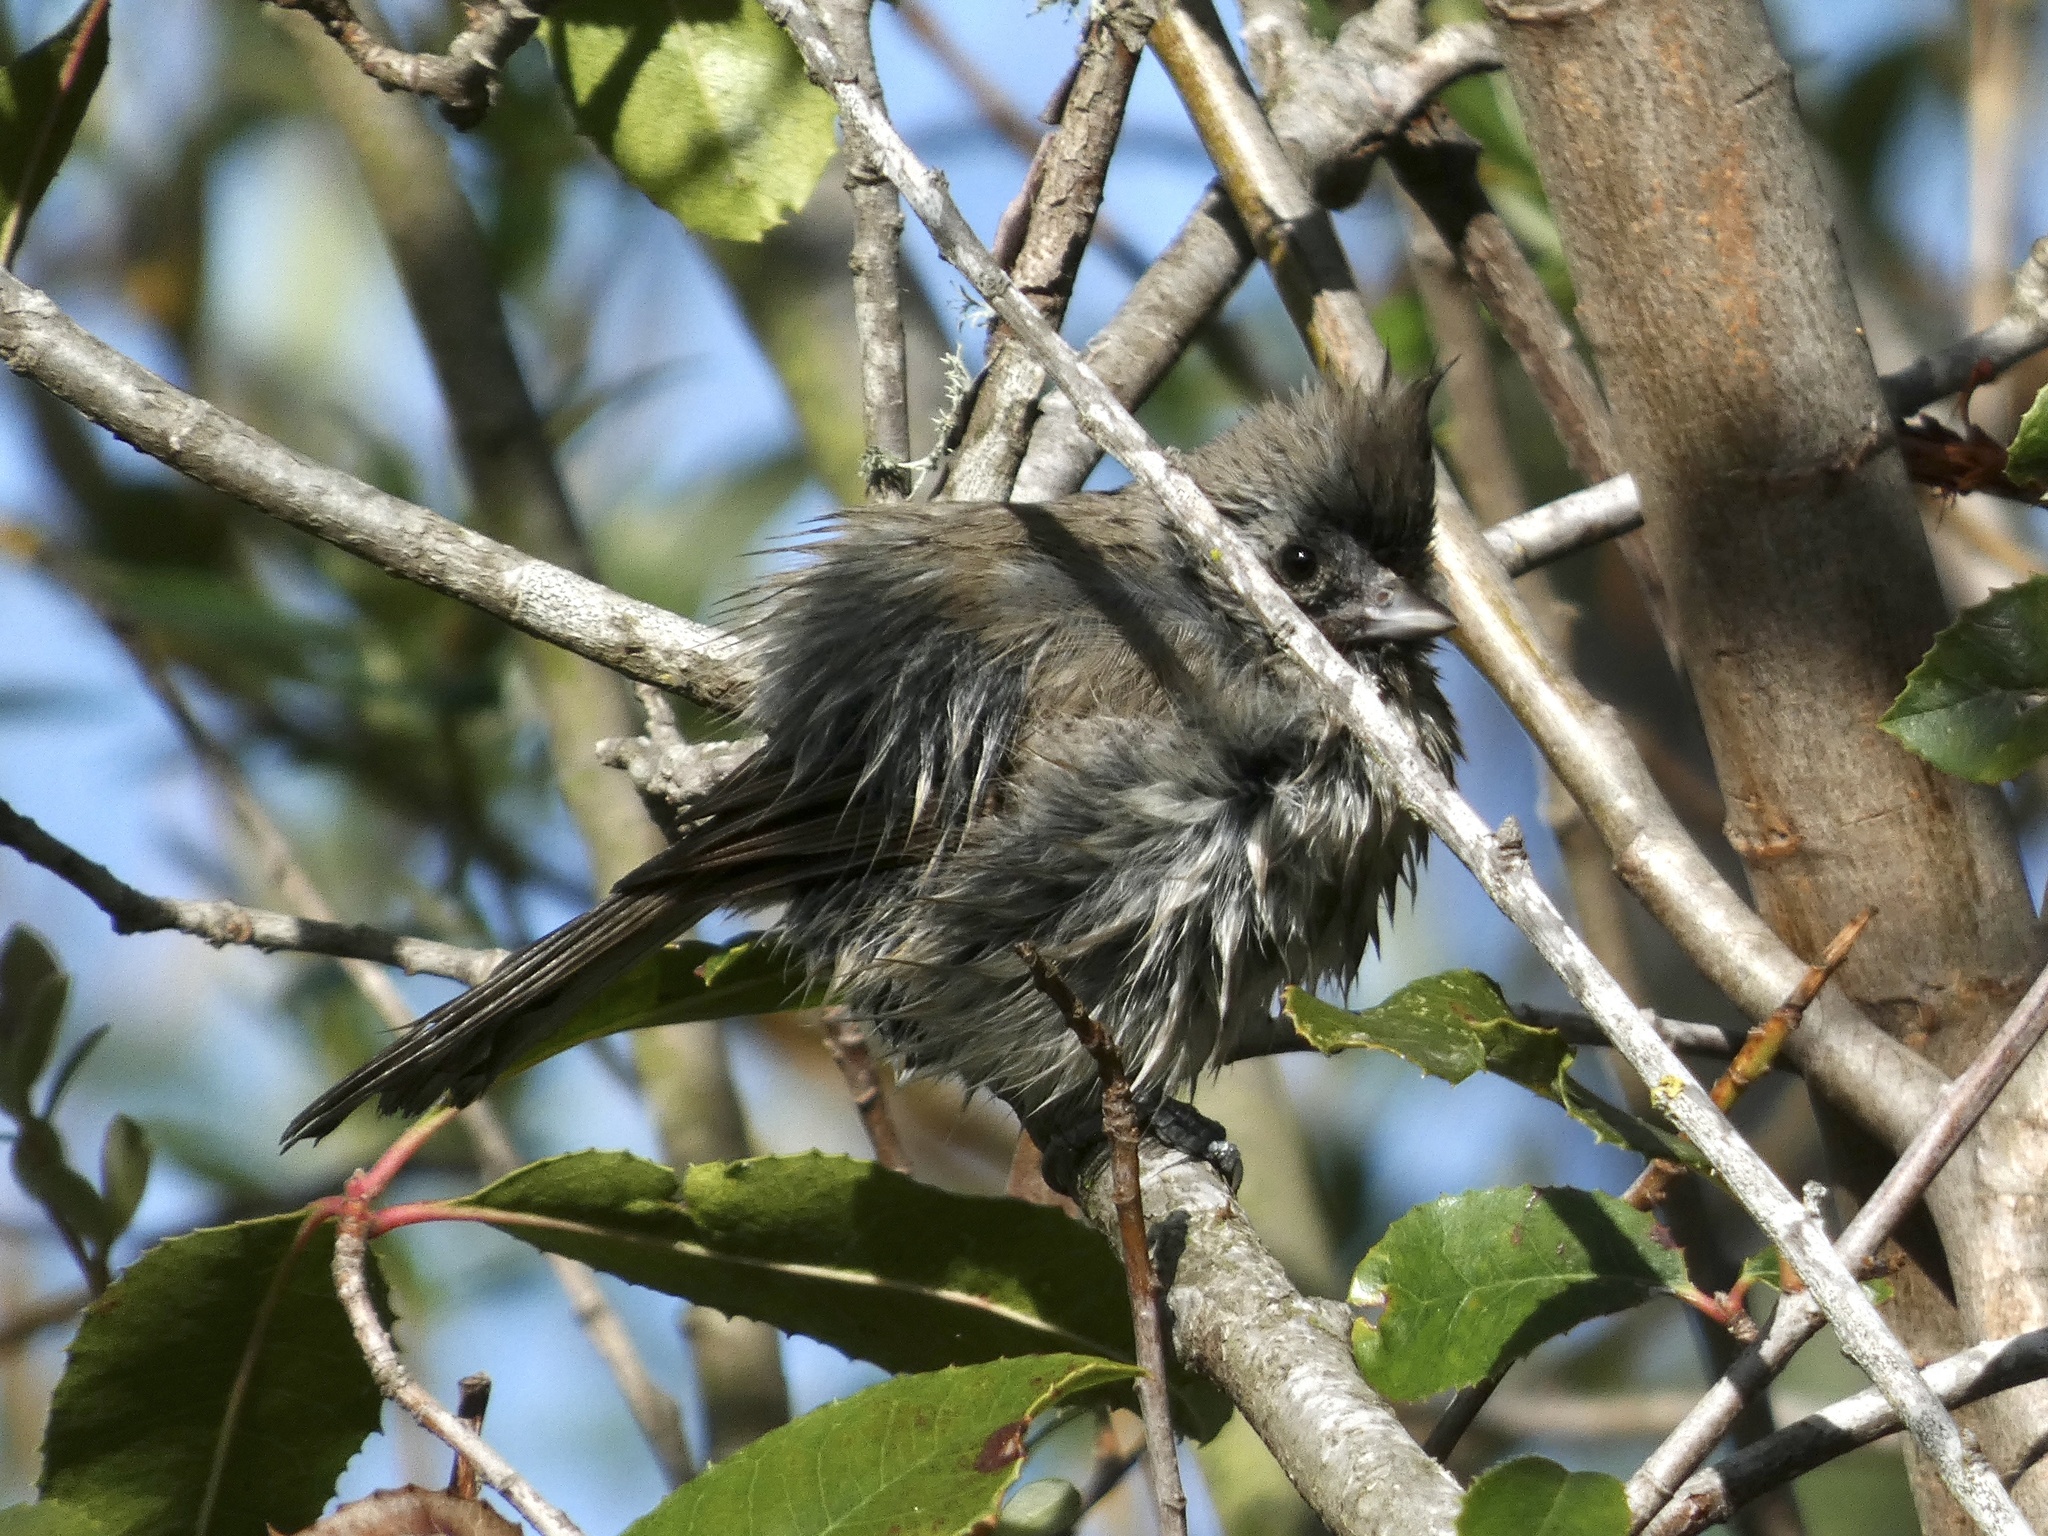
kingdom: Animalia
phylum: Chordata
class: Aves
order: Passeriformes
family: Paridae
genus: Baeolophus
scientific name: Baeolophus inornatus
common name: Oak titmouse
